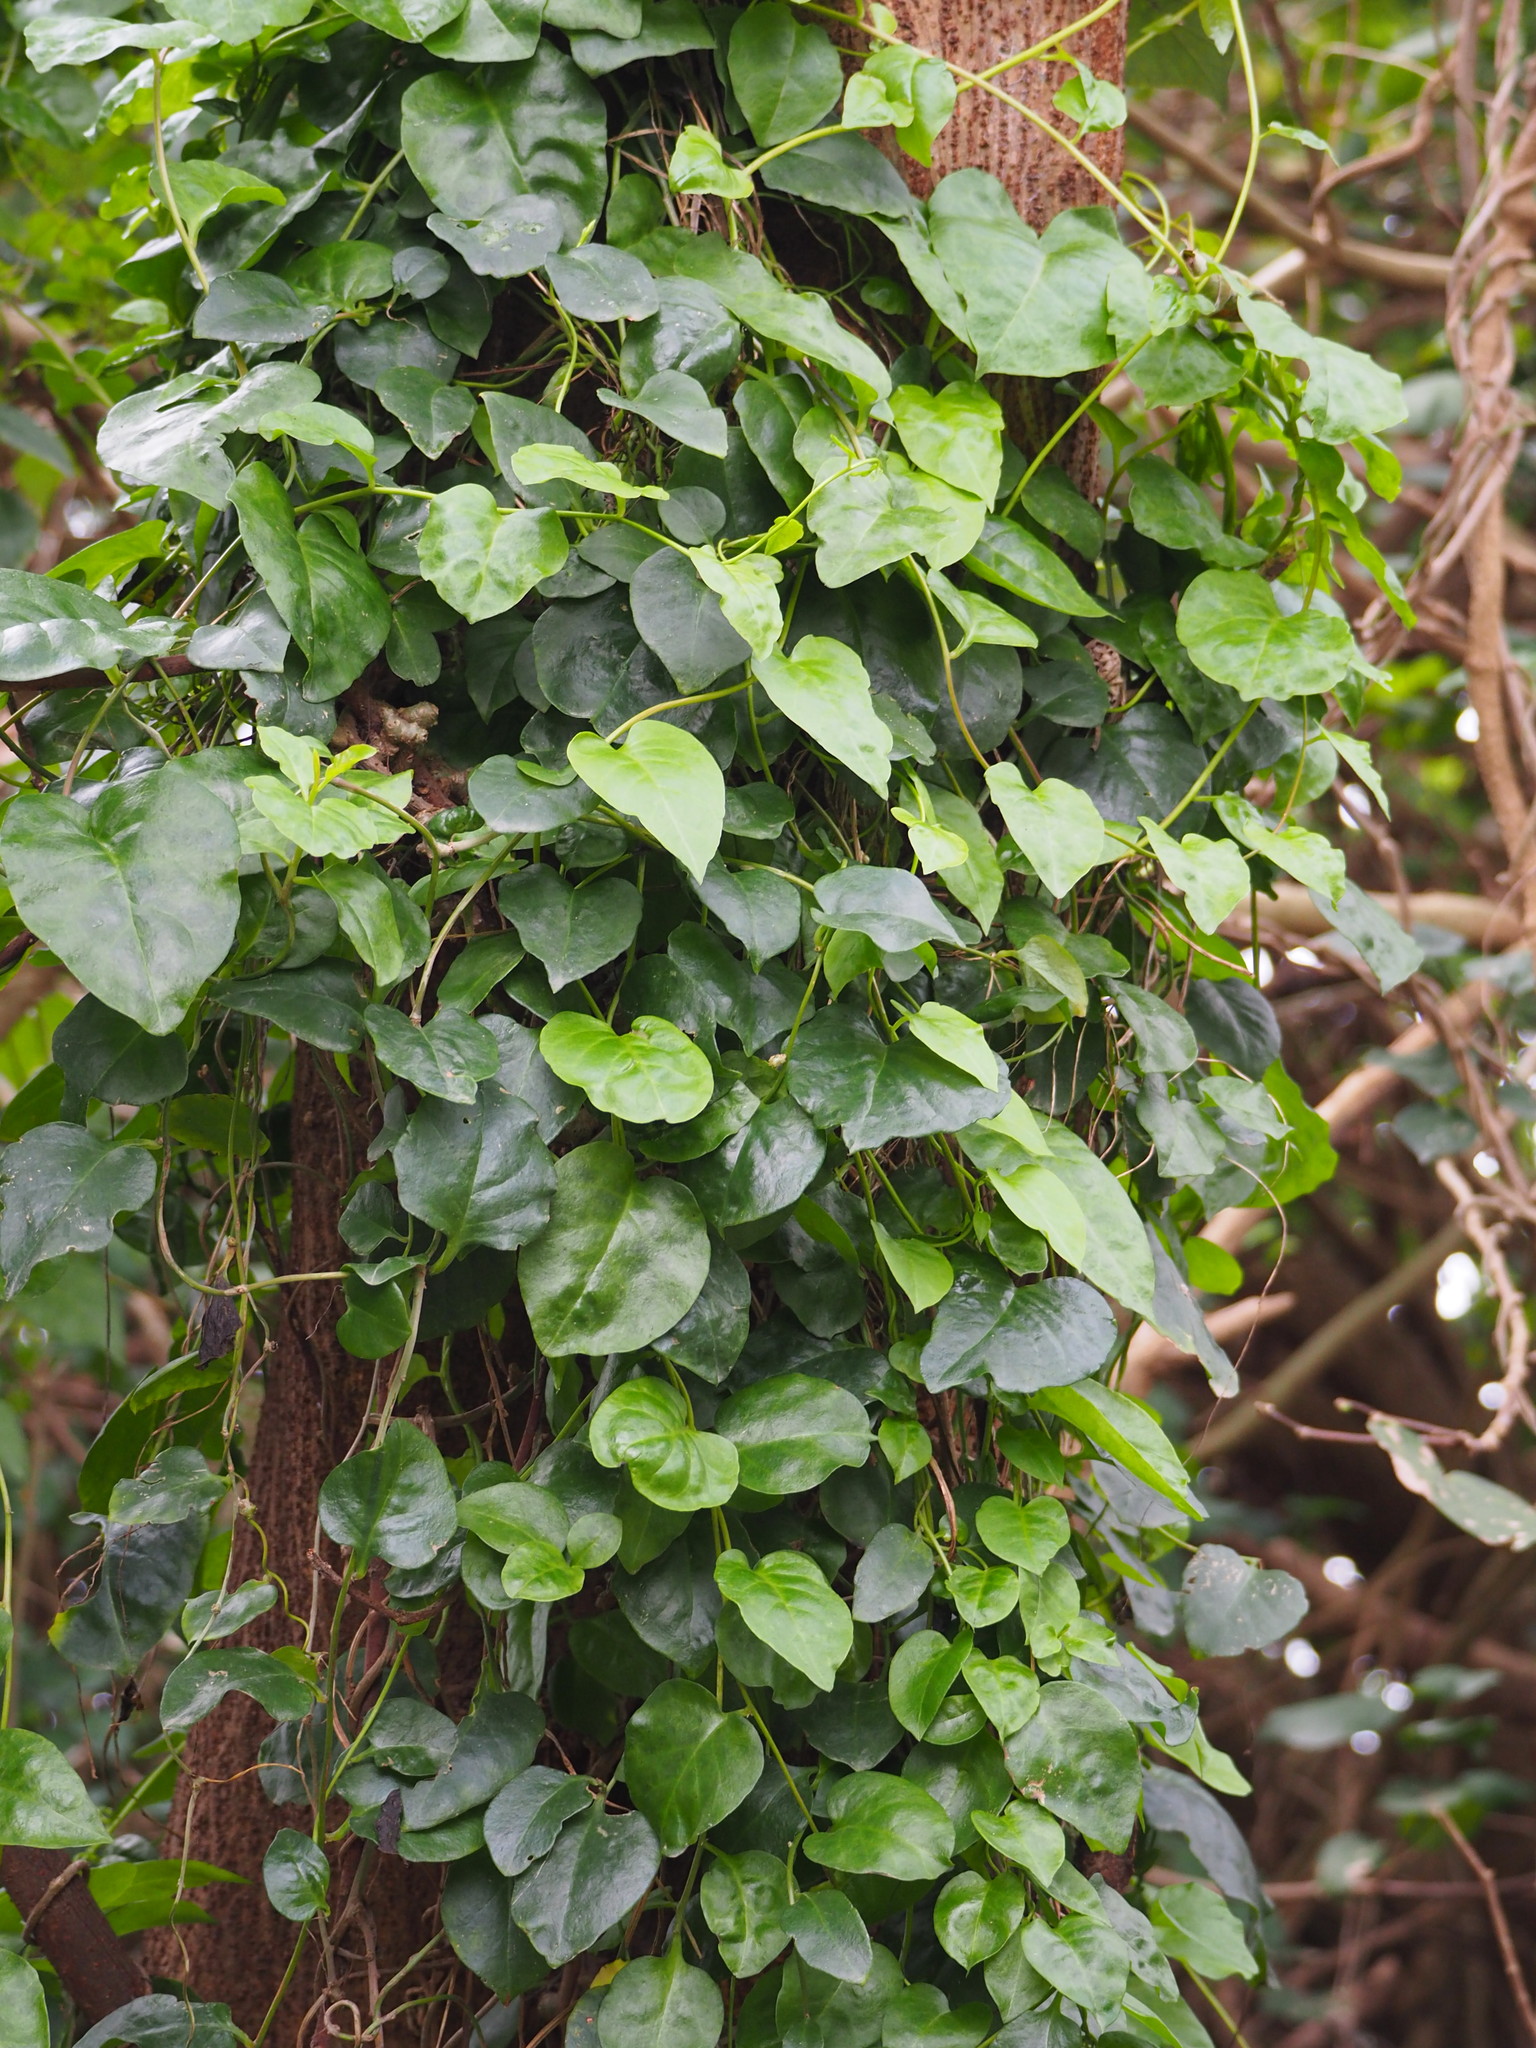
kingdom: Plantae
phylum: Tracheophyta
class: Magnoliopsida
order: Caryophyllales
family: Basellaceae
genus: Anredera
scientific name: Anredera cordifolia
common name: Heartleaf madeiravine
